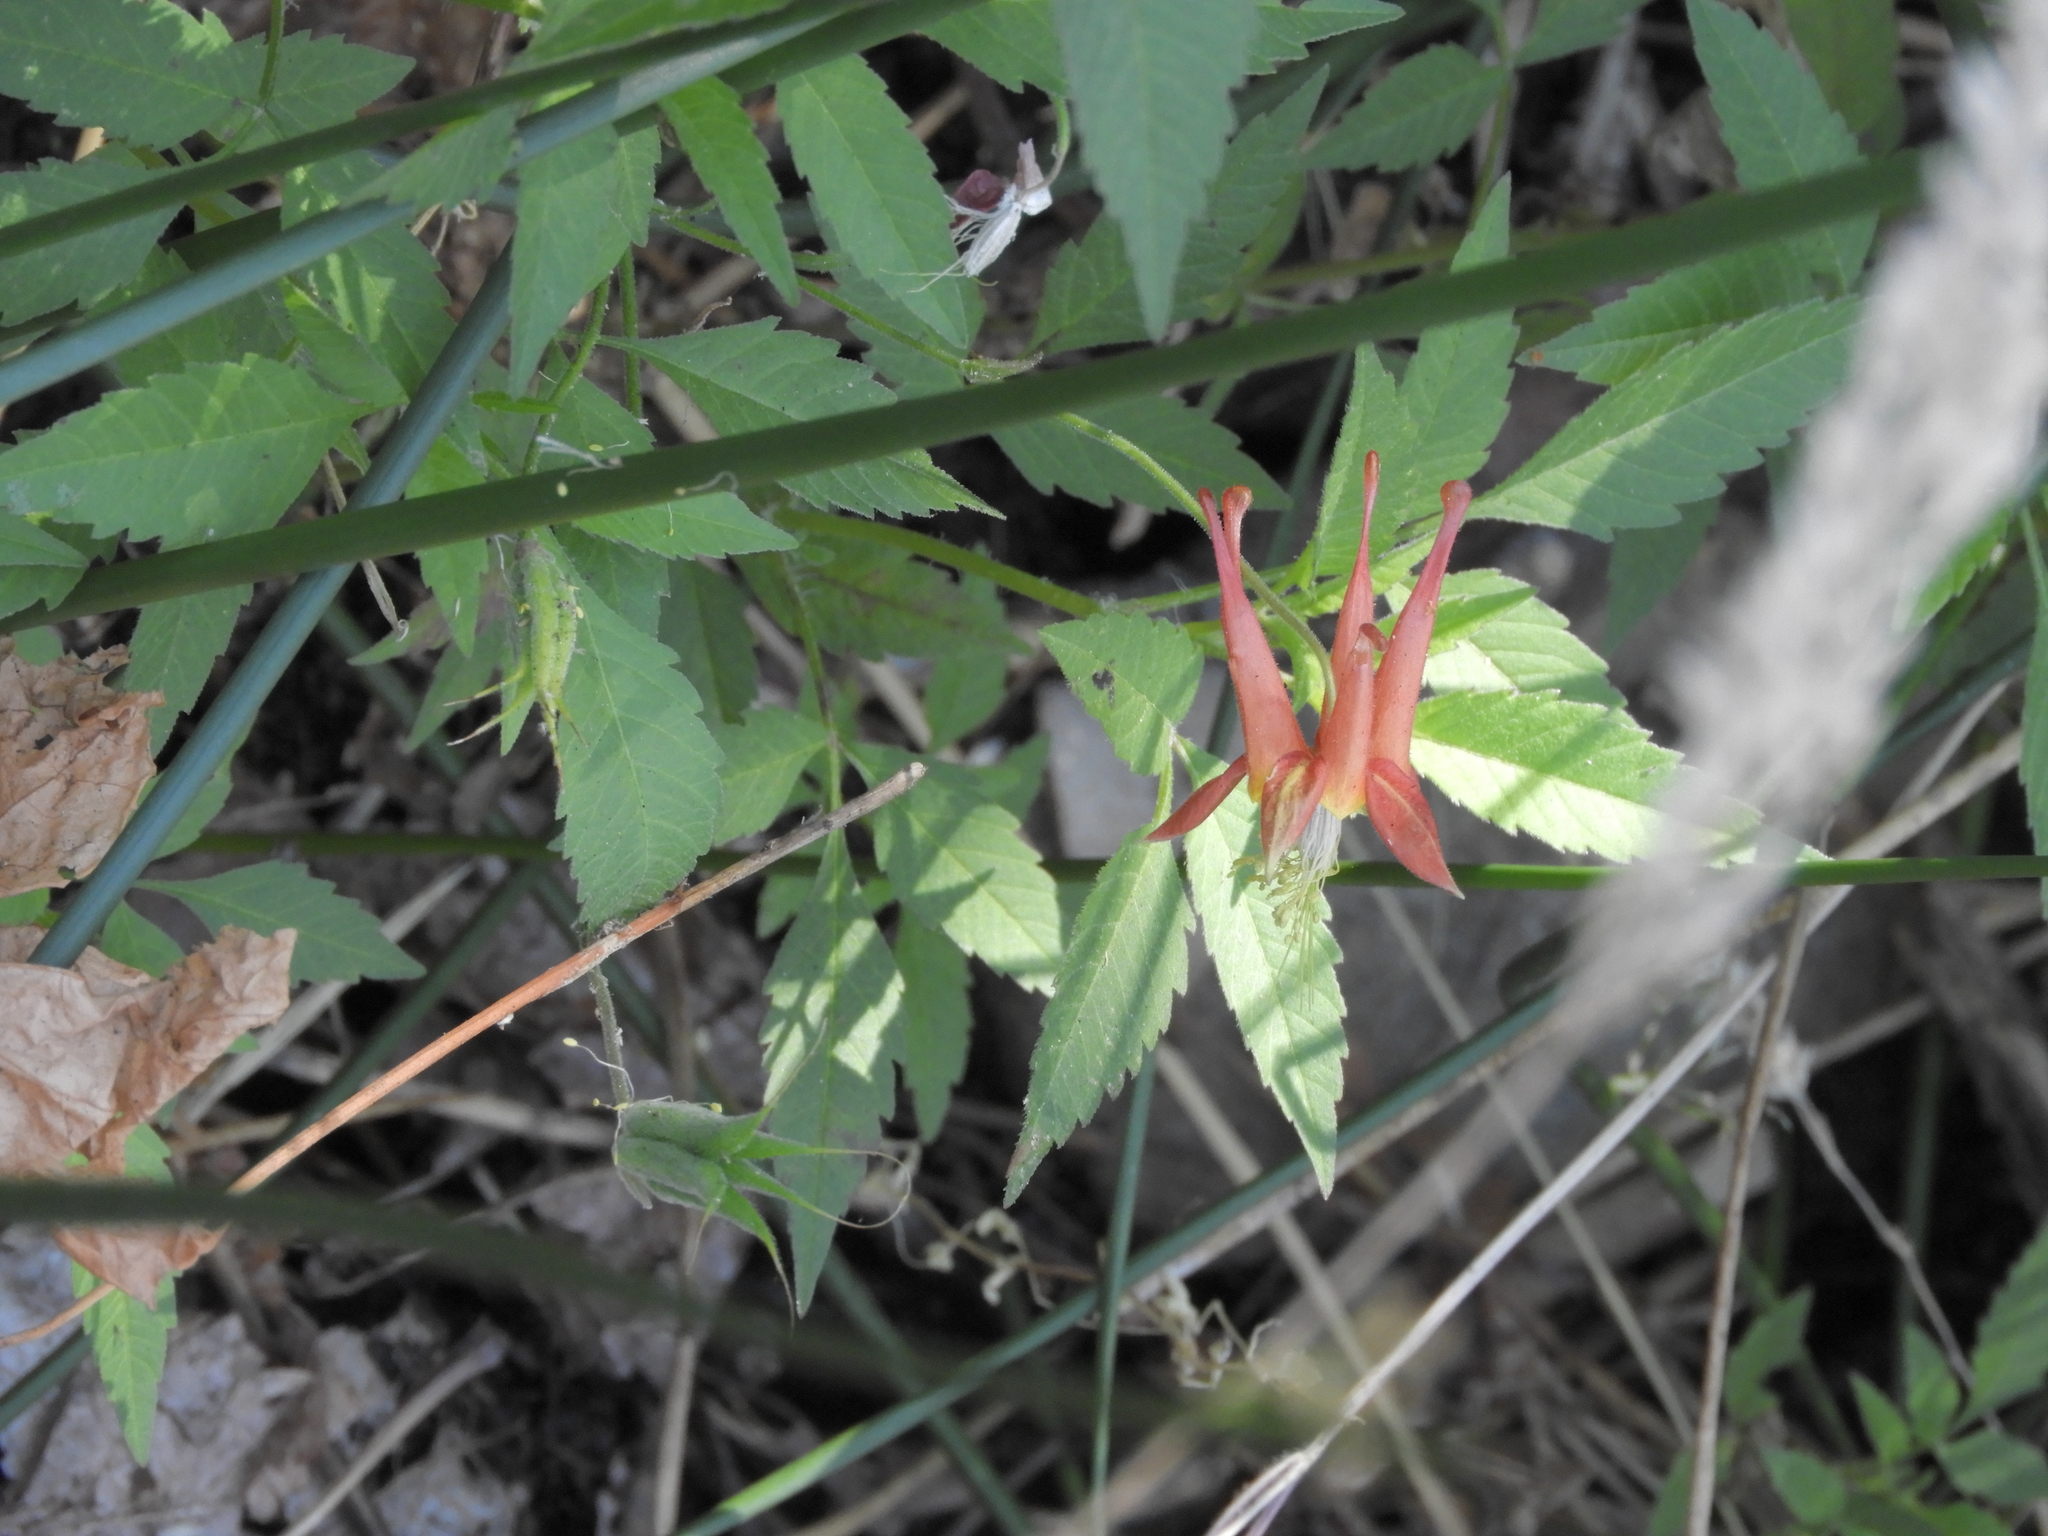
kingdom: Plantae
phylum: Tracheophyta
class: Magnoliopsida
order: Ranunculales
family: Ranunculaceae
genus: Aquilegia
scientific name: Aquilegia formosa
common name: Sitka columbine
